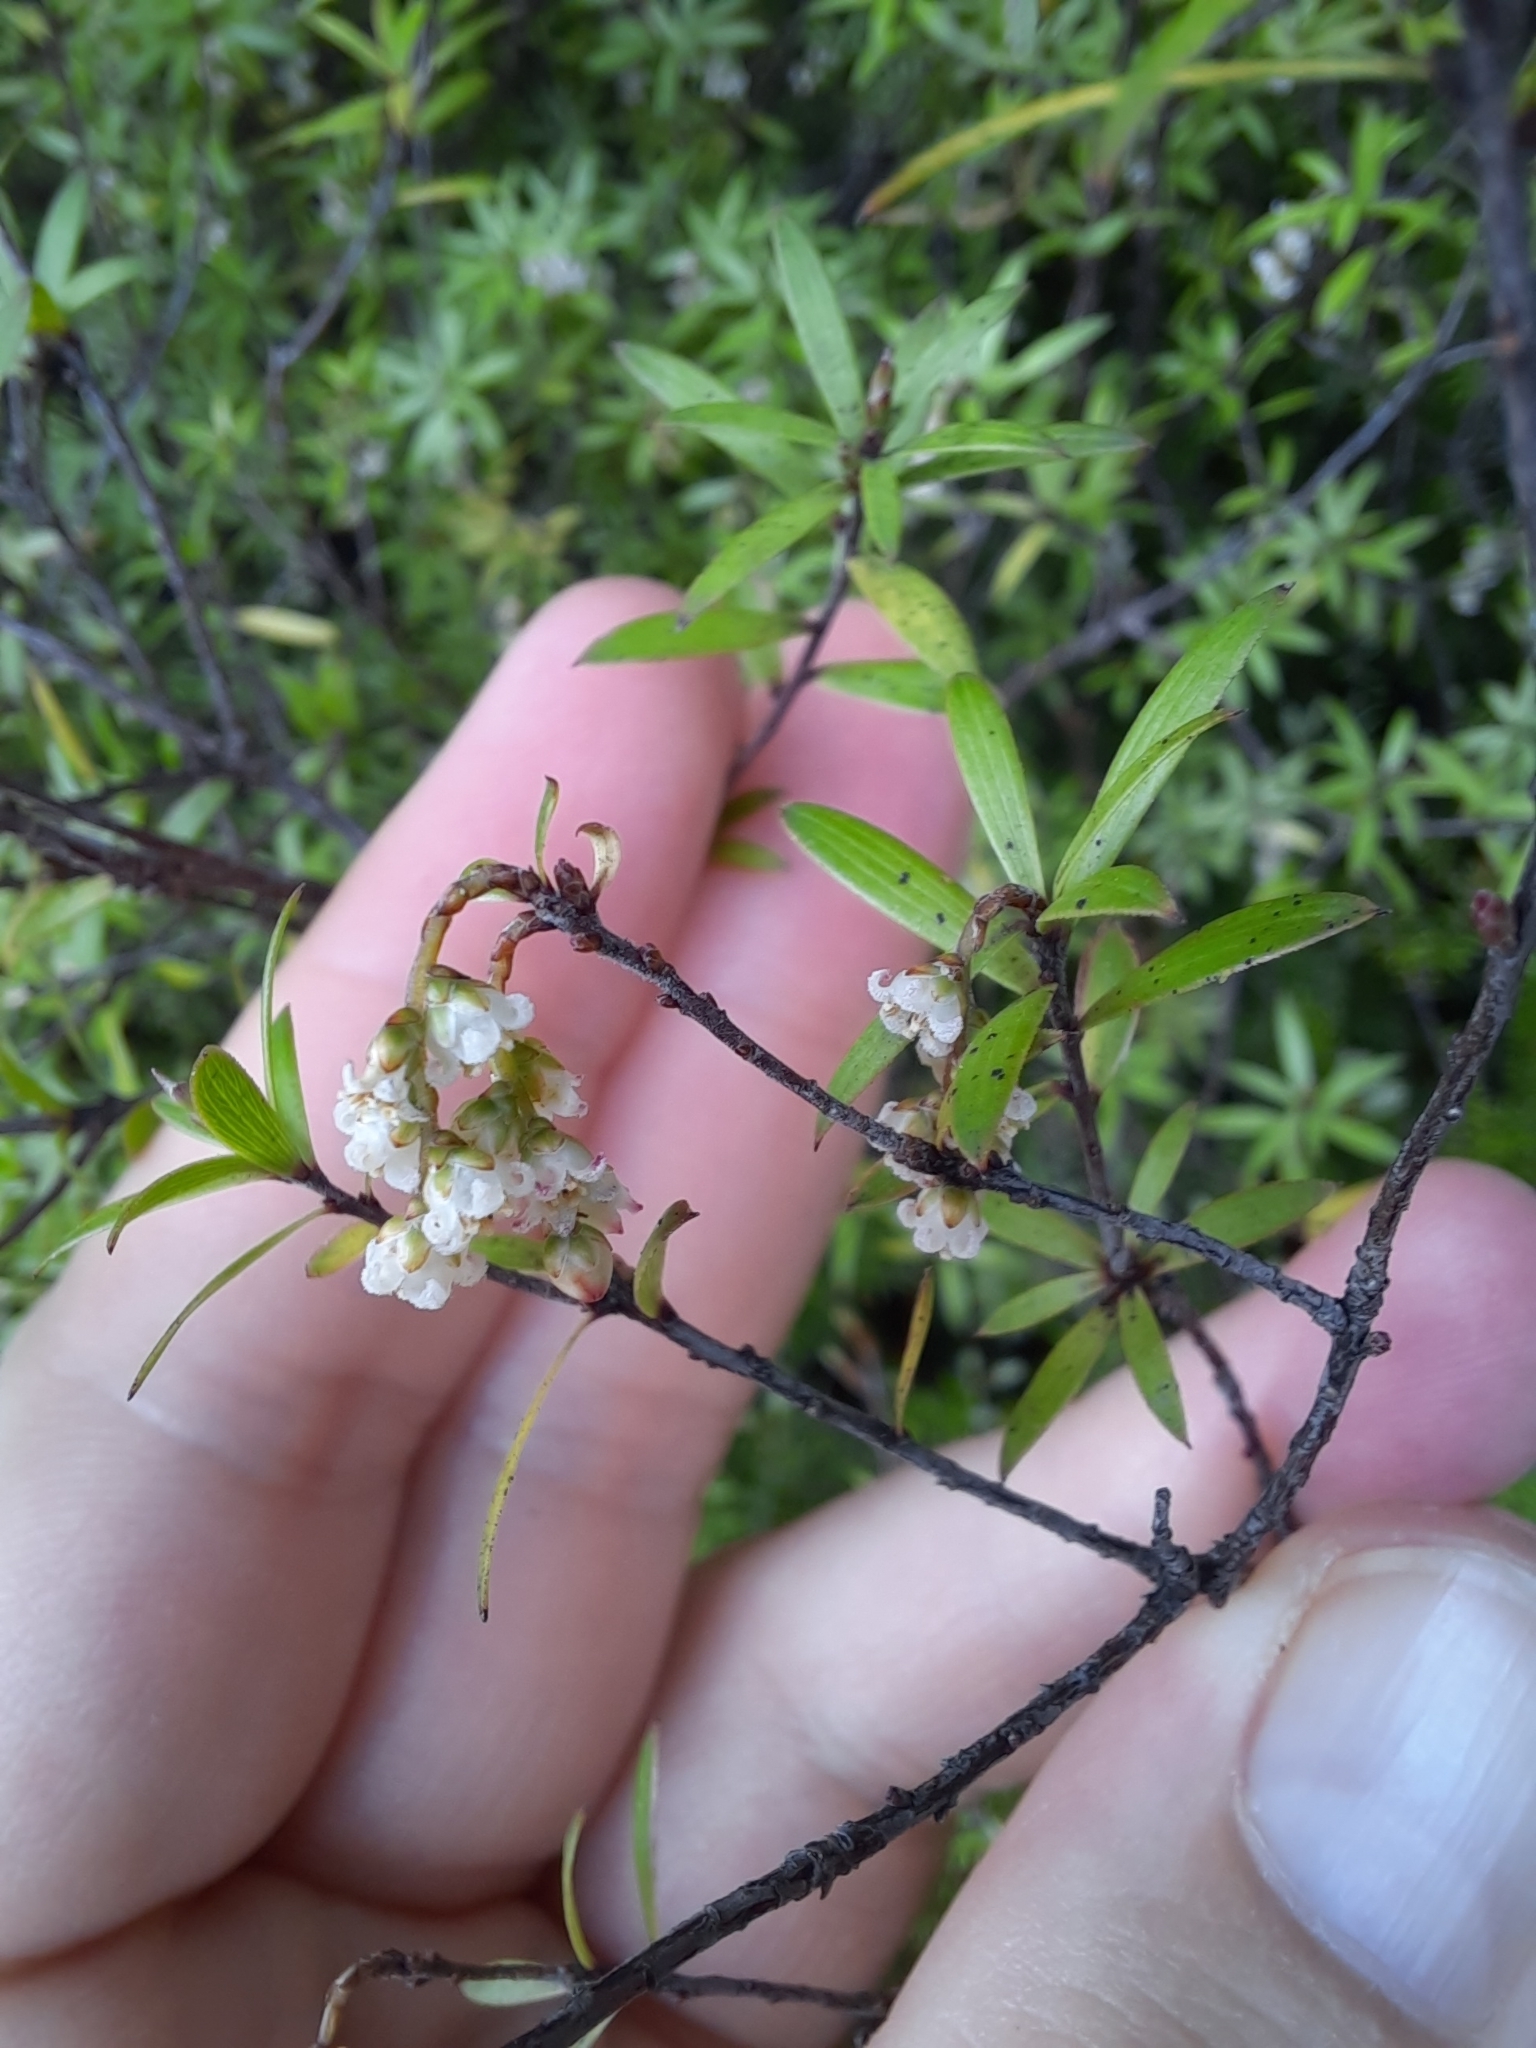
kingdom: Plantae
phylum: Tracheophyta
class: Magnoliopsida
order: Ericales
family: Ericaceae
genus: Leucopogon
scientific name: Leucopogon fasciculatus
